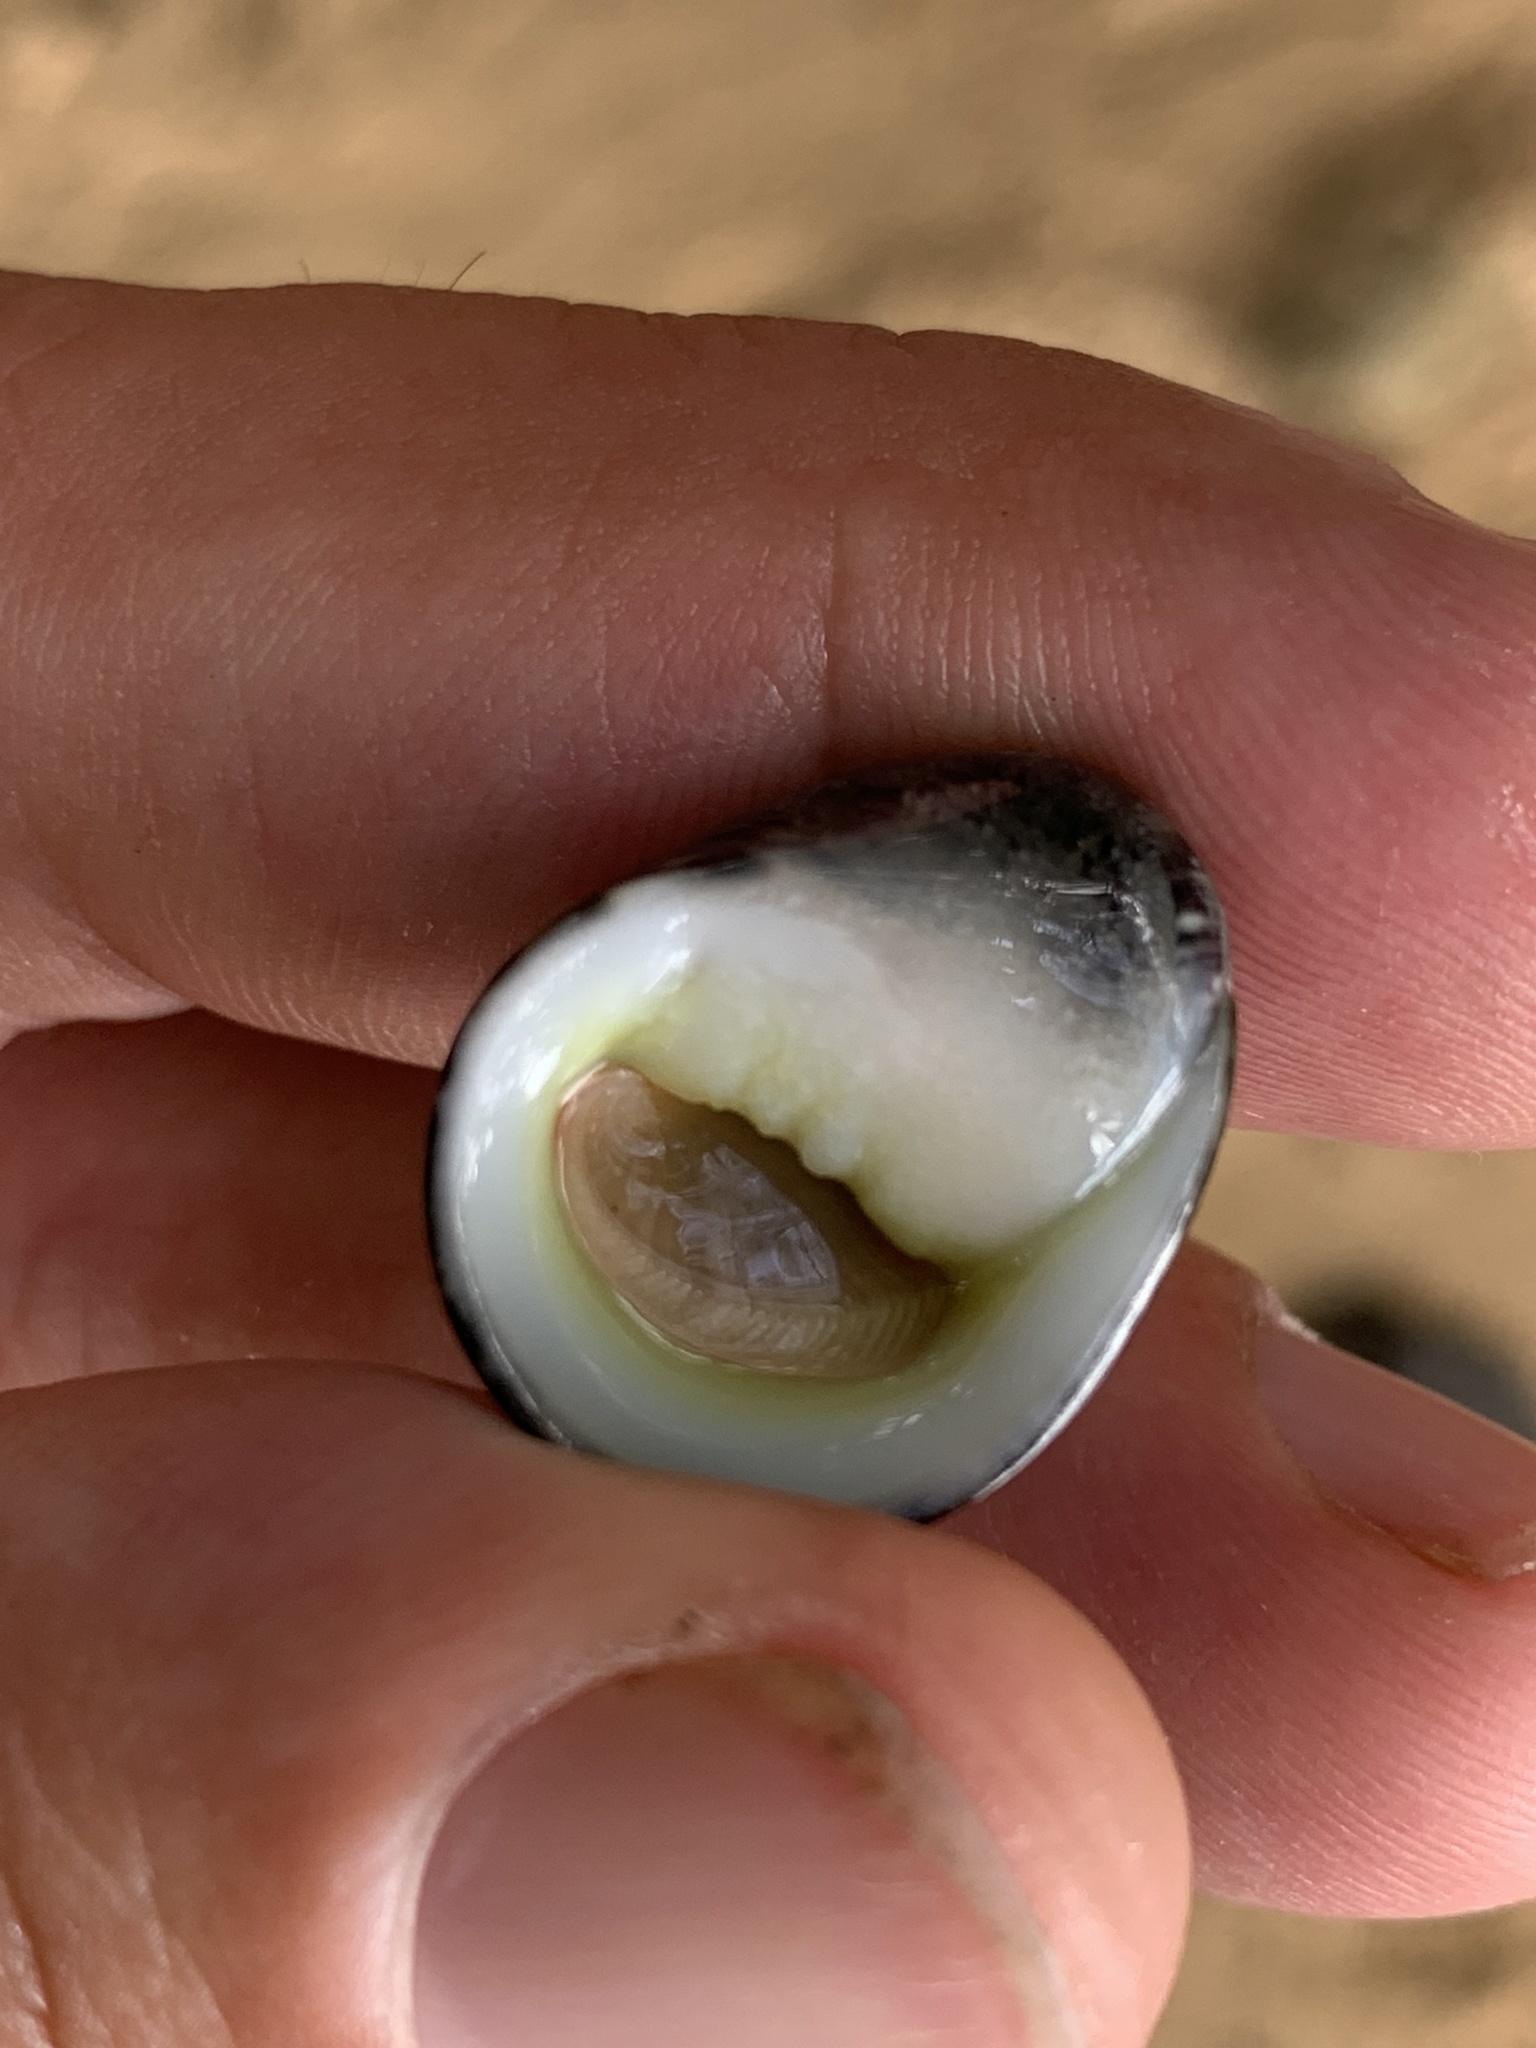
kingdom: Animalia
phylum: Mollusca
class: Gastropoda
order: Cycloneritida
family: Neritidae
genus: Nerita
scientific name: Nerita polita
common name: Polished nerite
